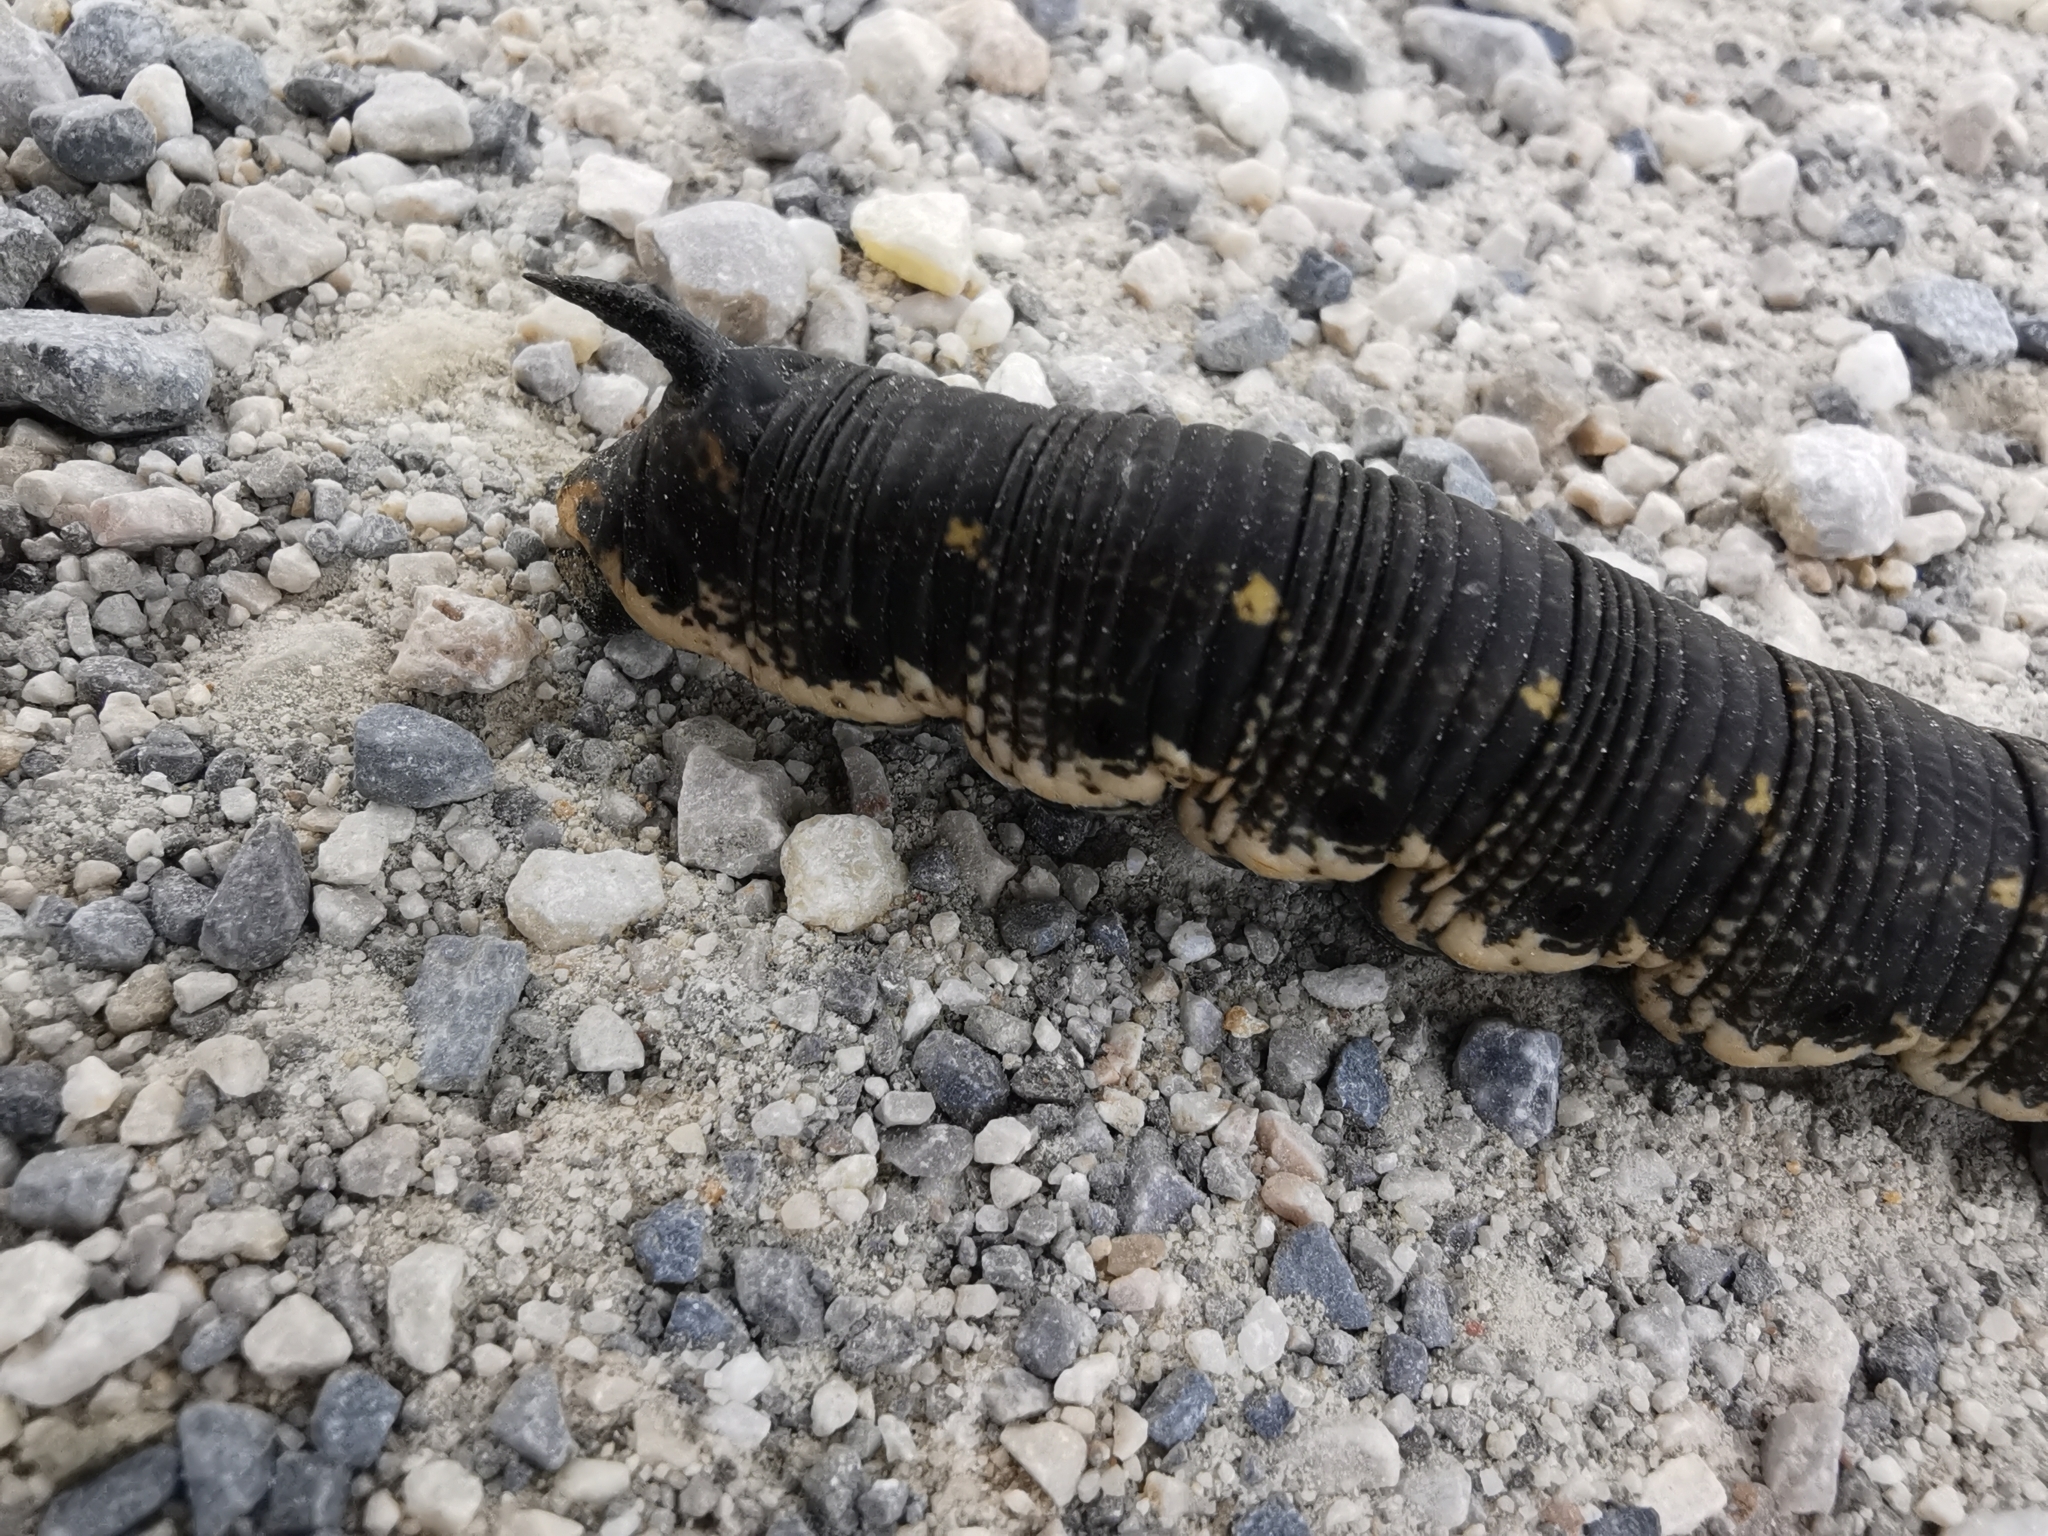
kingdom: Animalia
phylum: Arthropoda
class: Insecta
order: Lepidoptera
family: Sphingidae
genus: Agrius
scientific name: Agrius convolvuli
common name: Convolvulus hawkmoth
